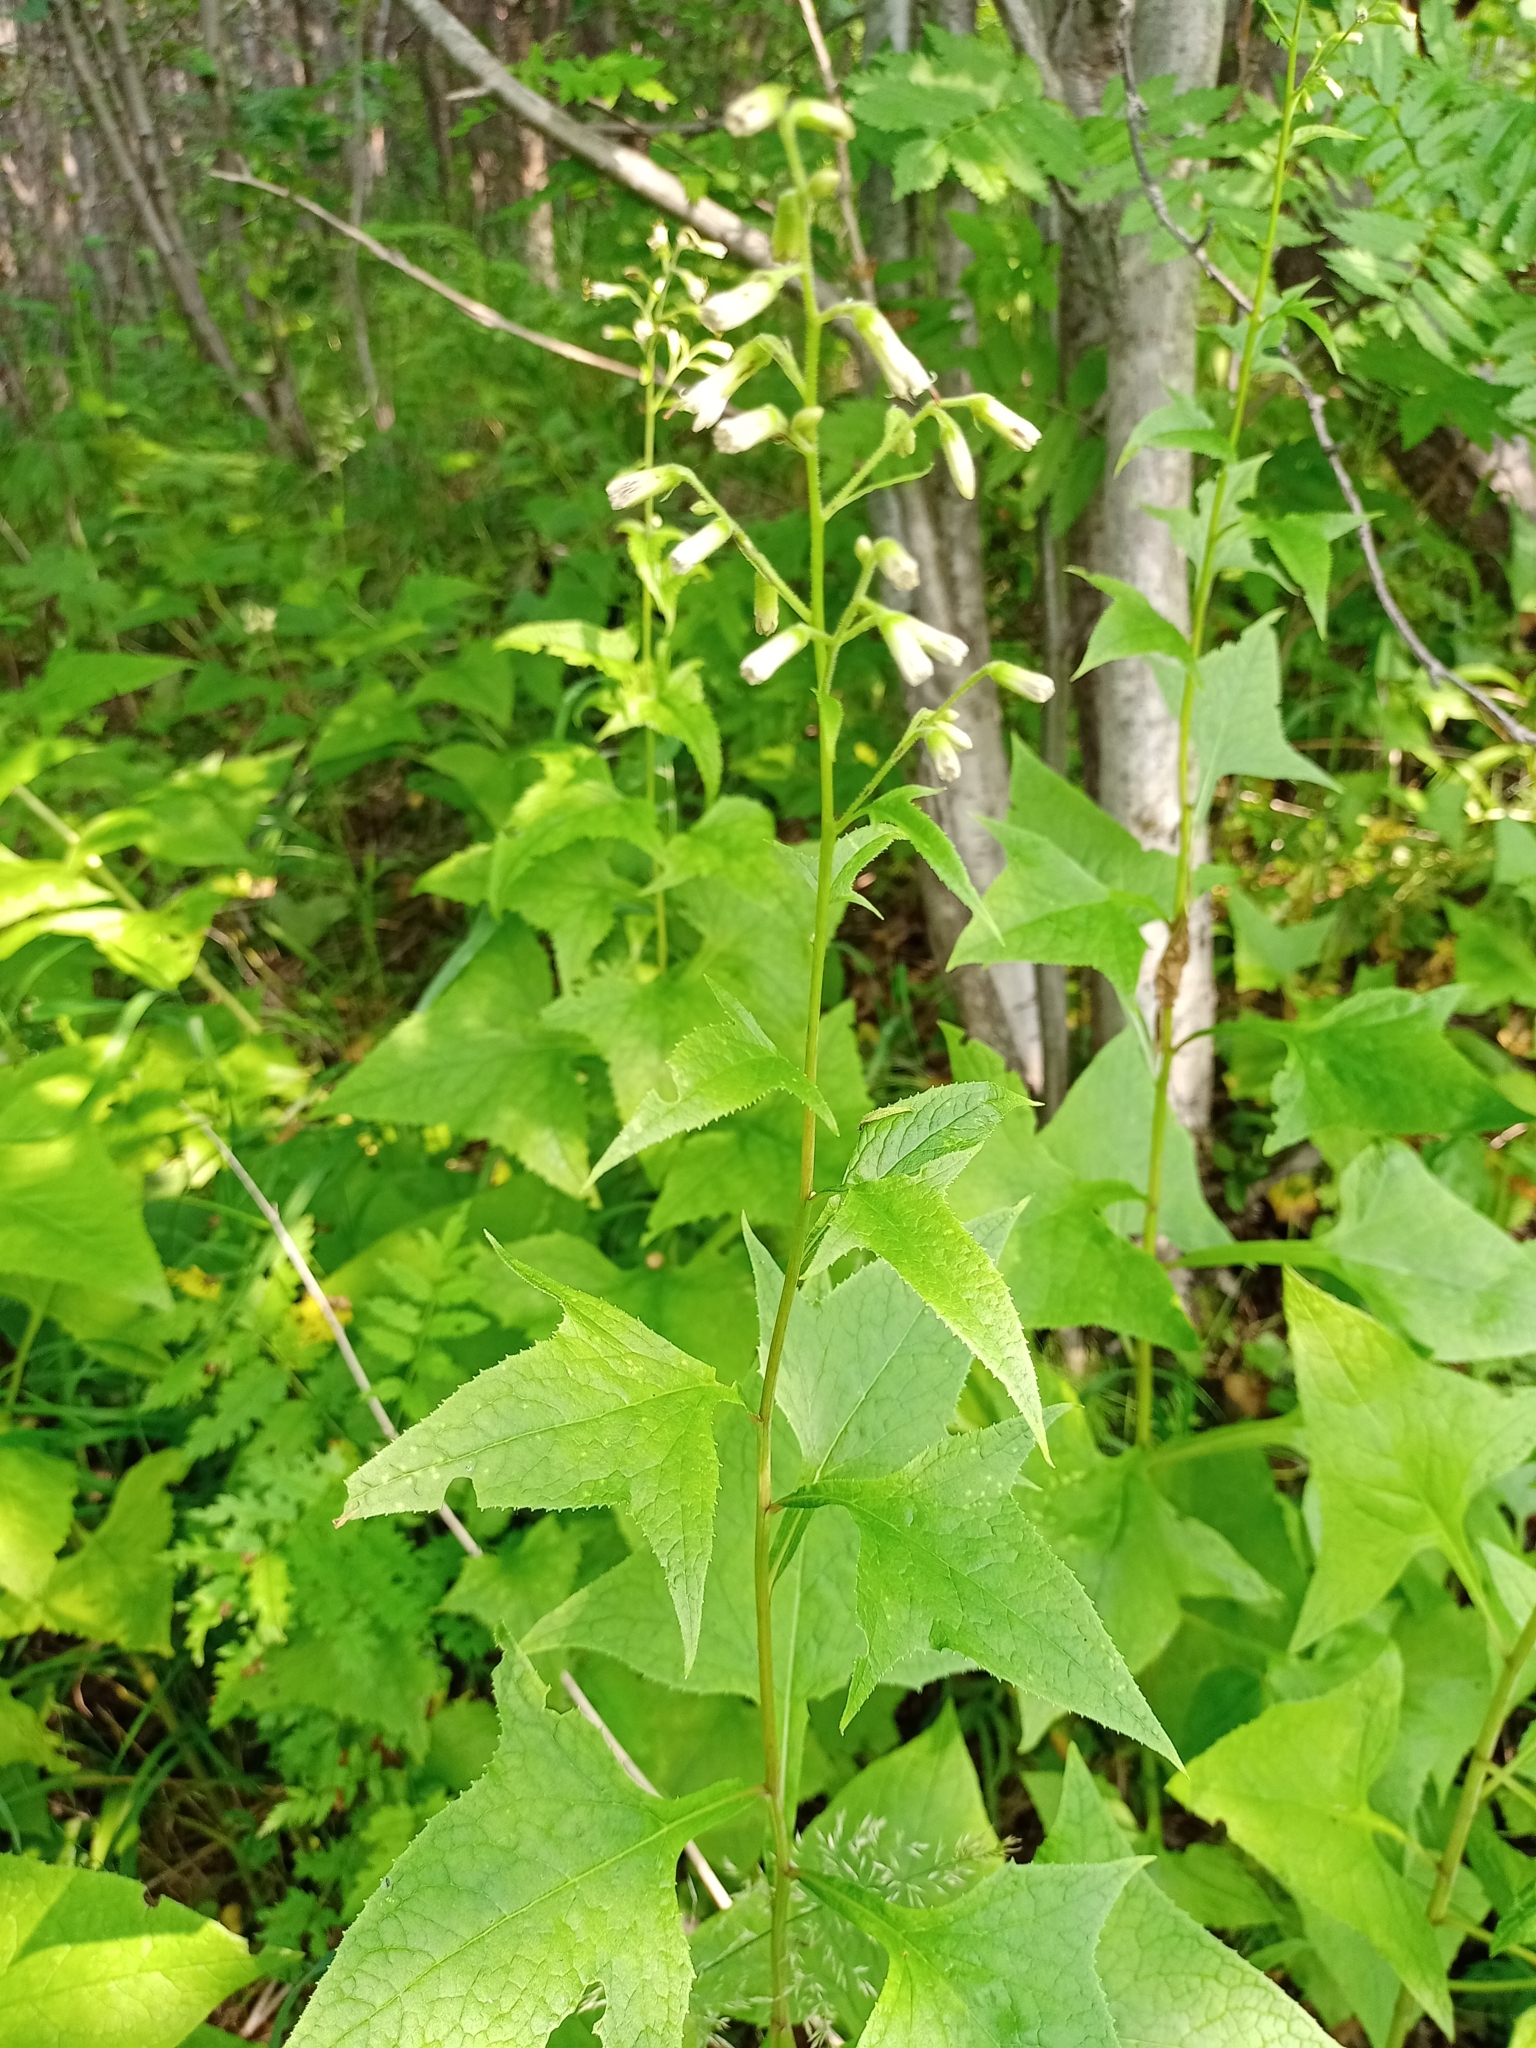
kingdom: Plantae
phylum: Tracheophyta
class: Magnoliopsida
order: Asterales
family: Asteraceae
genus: Parasenecio
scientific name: Parasenecio hastatus
